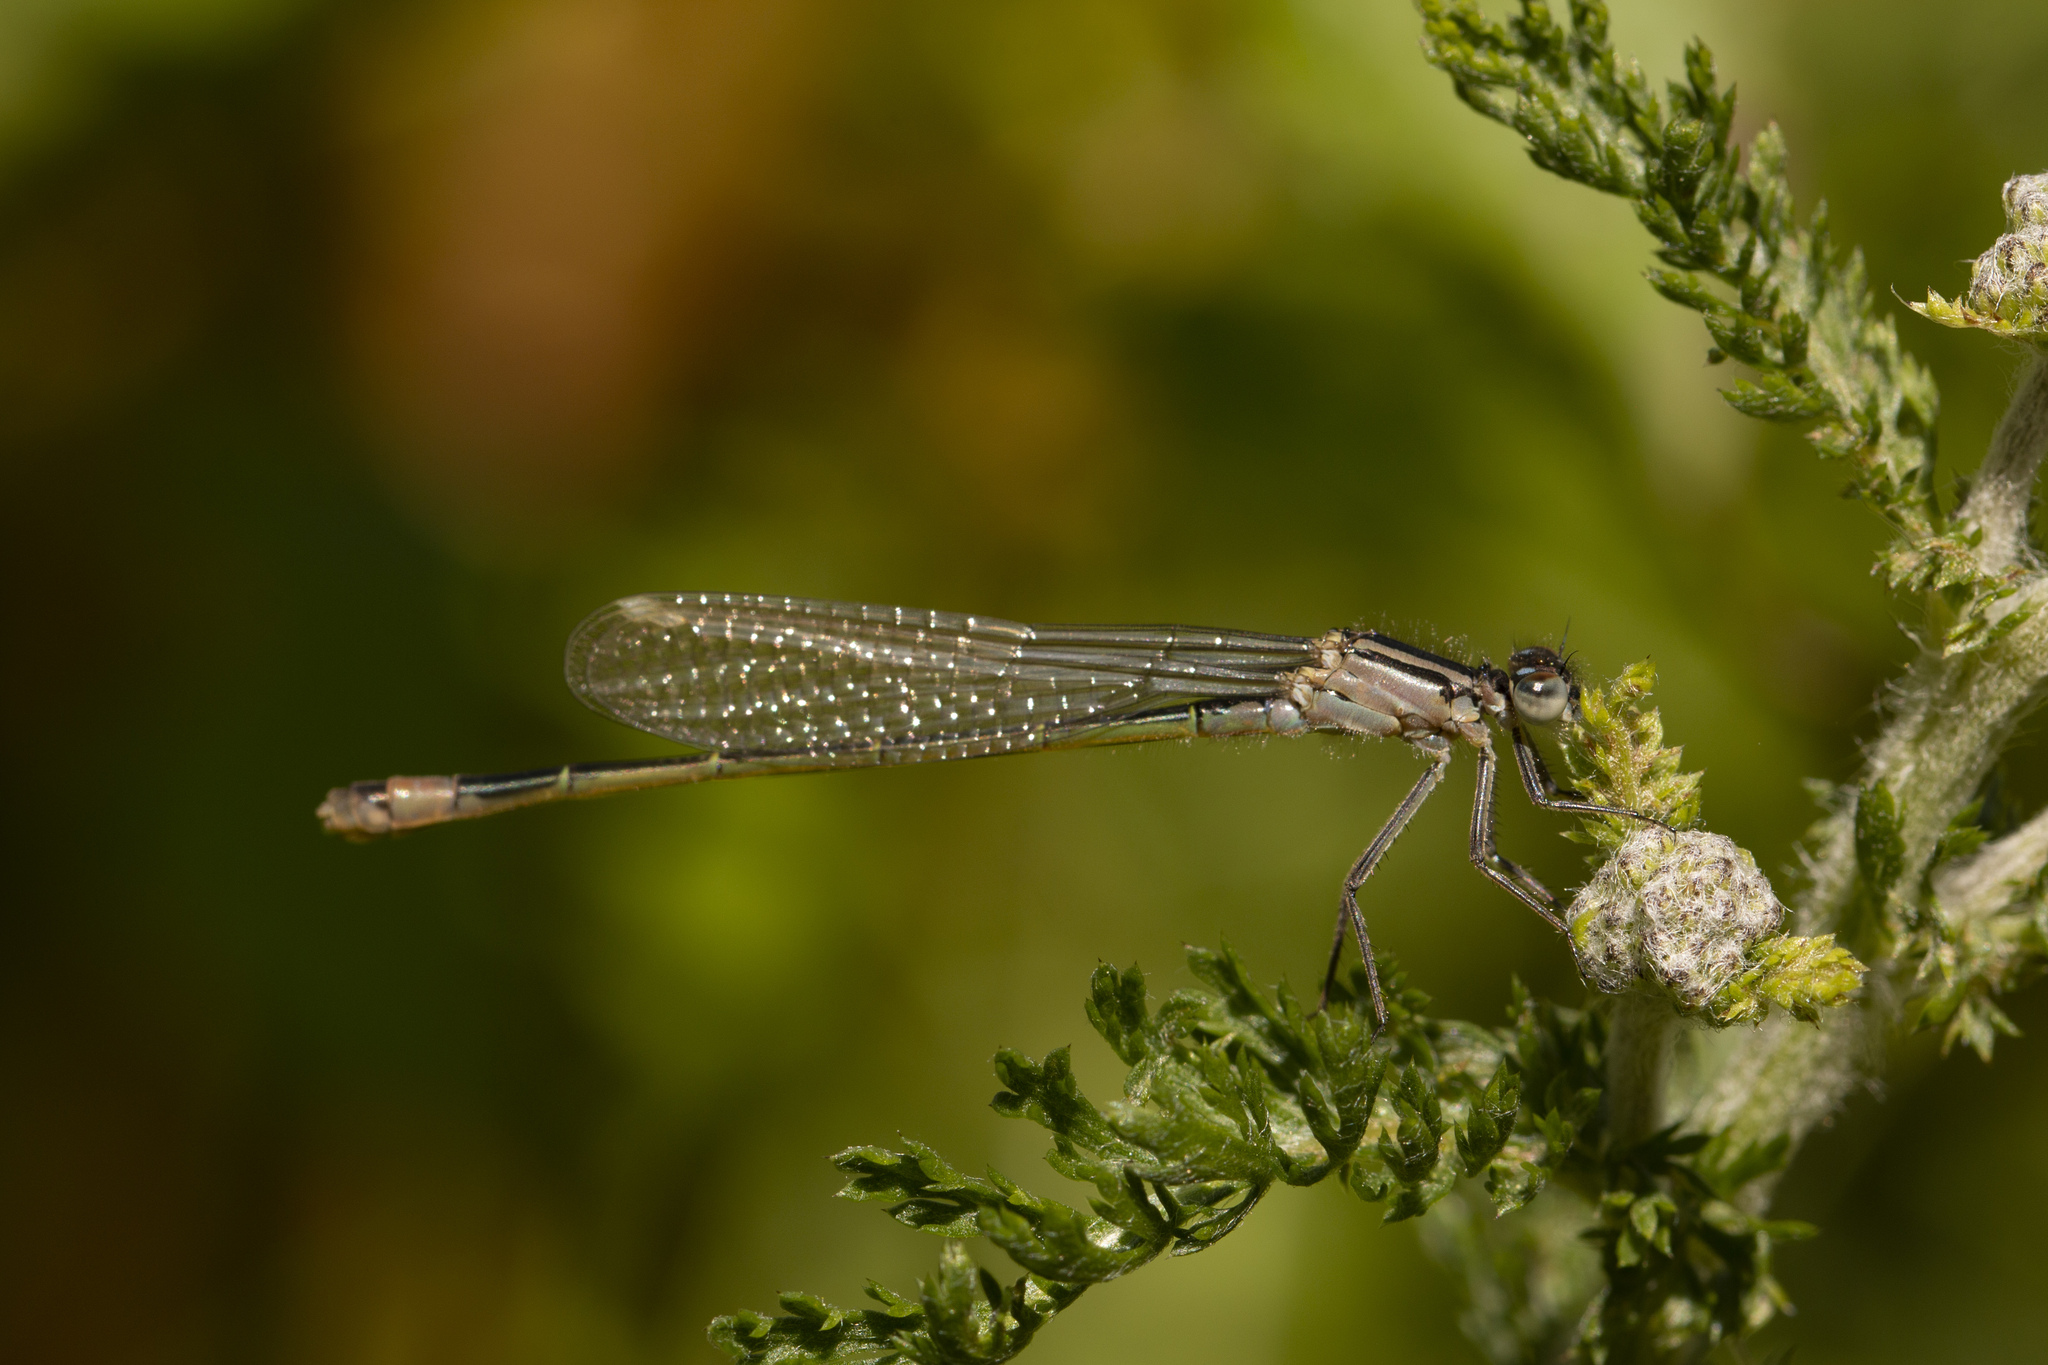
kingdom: Animalia
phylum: Arthropoda
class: Insecta
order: Odonata
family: Coenagrionidae
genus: Ischnura
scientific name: Ischnura elegans
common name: Blue-tailed damselfly
